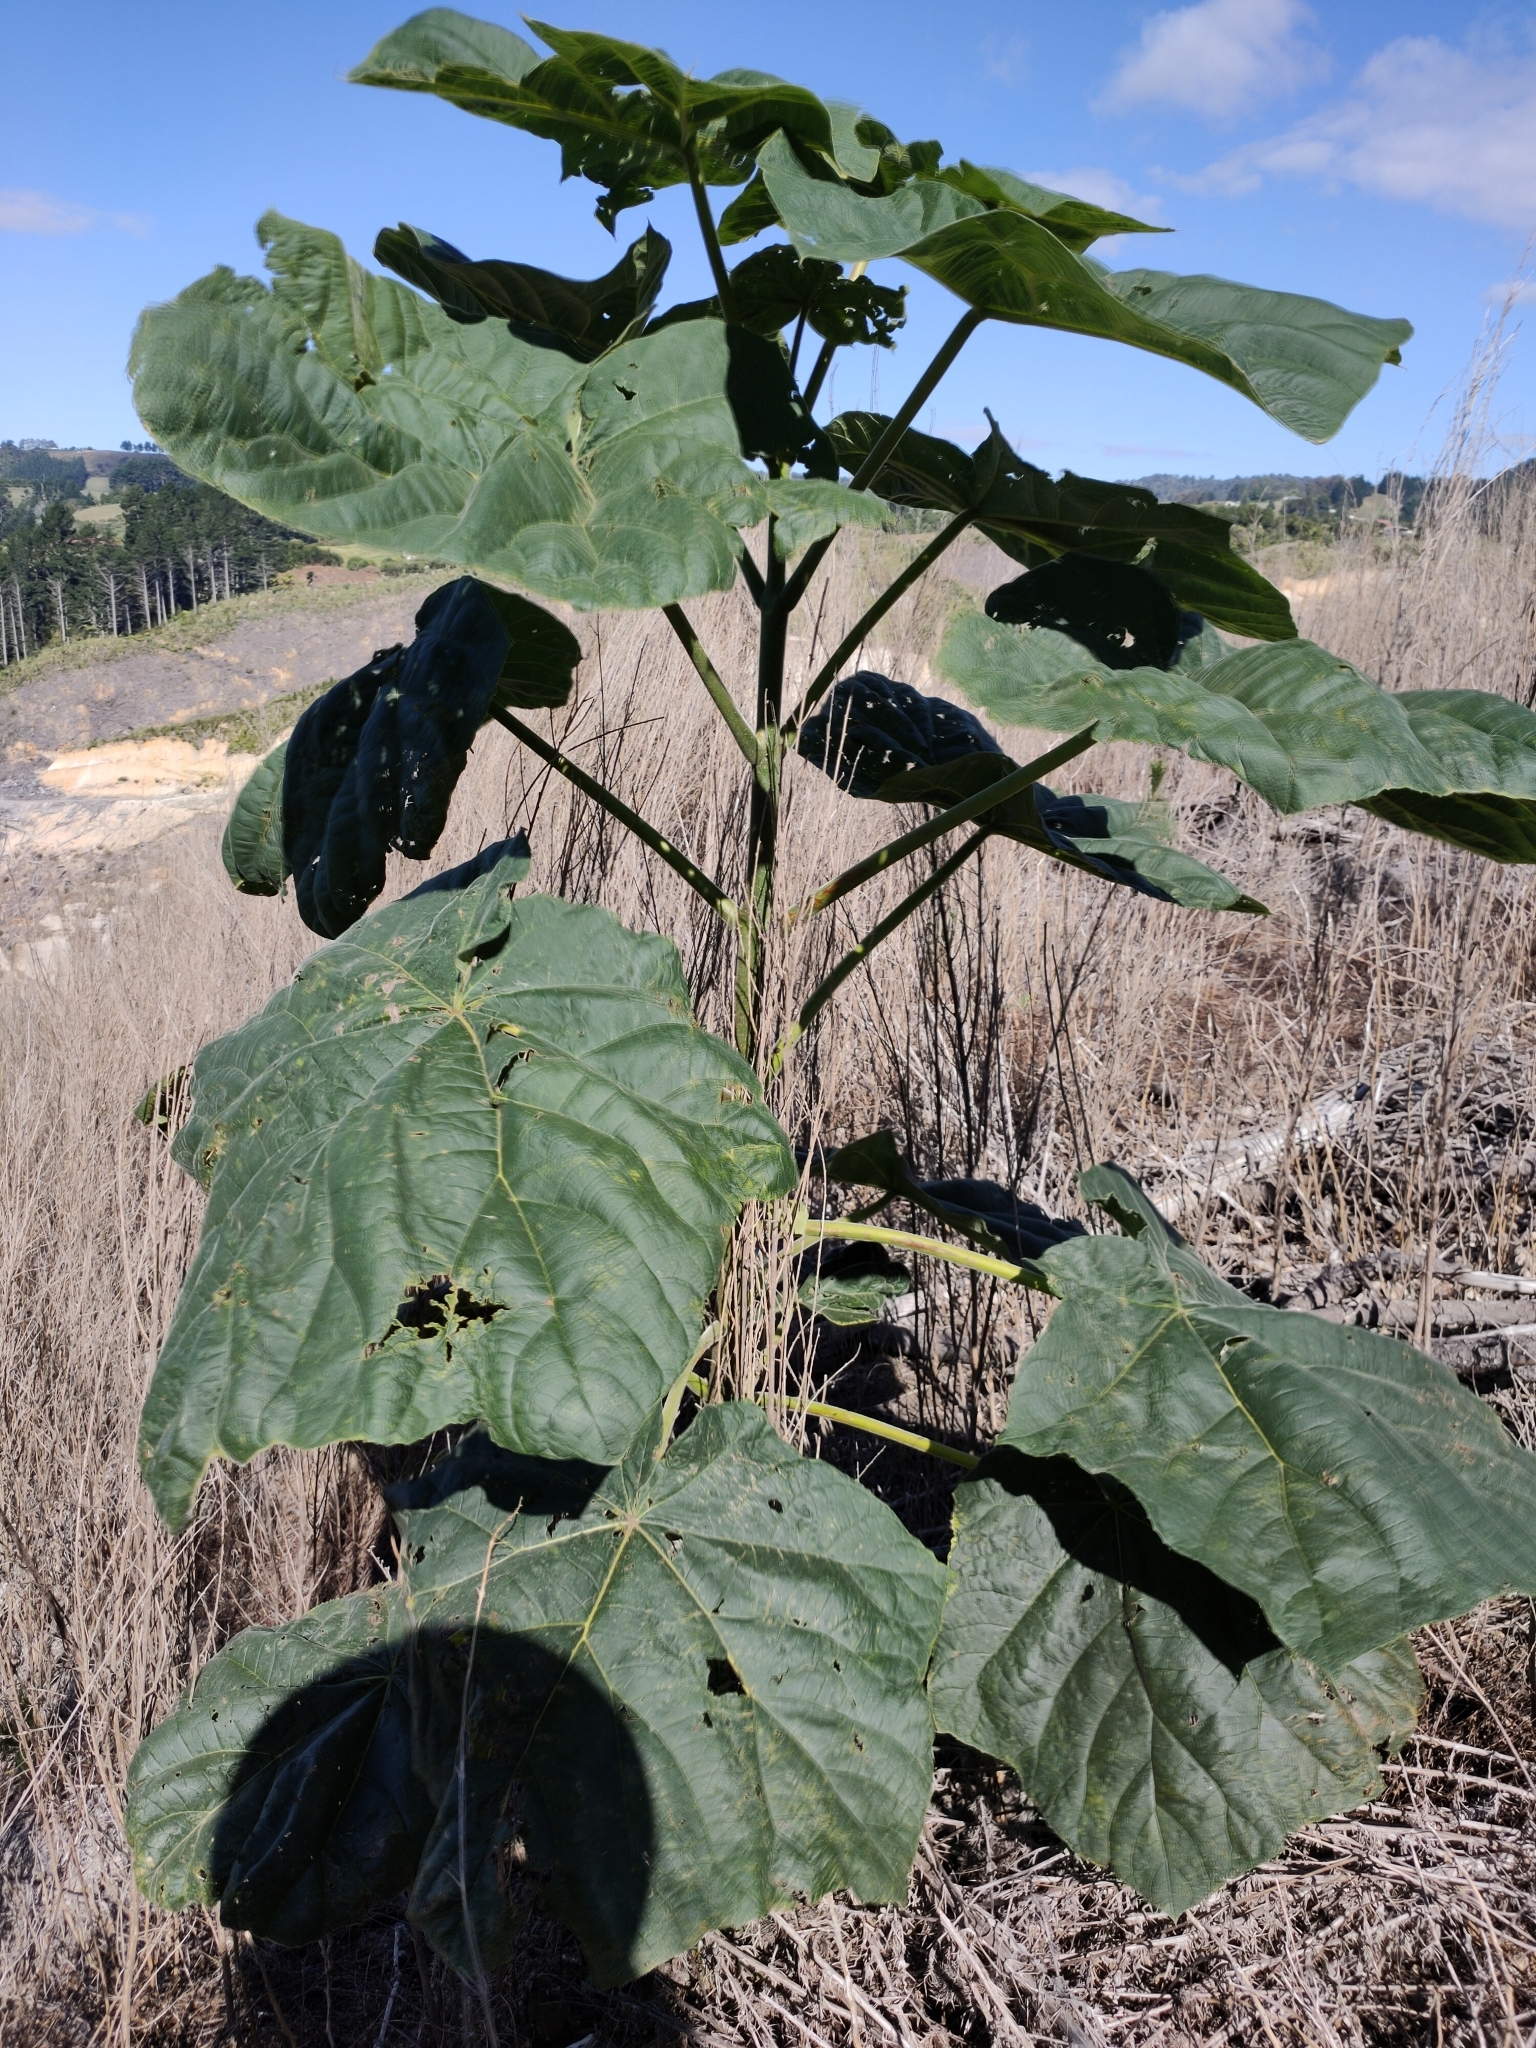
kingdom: Plantae
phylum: Tracheophyta
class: Magnoliopsida
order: Lamiales
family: Paulowniaceae
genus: Paulownia
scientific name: Paulownia tomentosa
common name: Foxglove-tree
